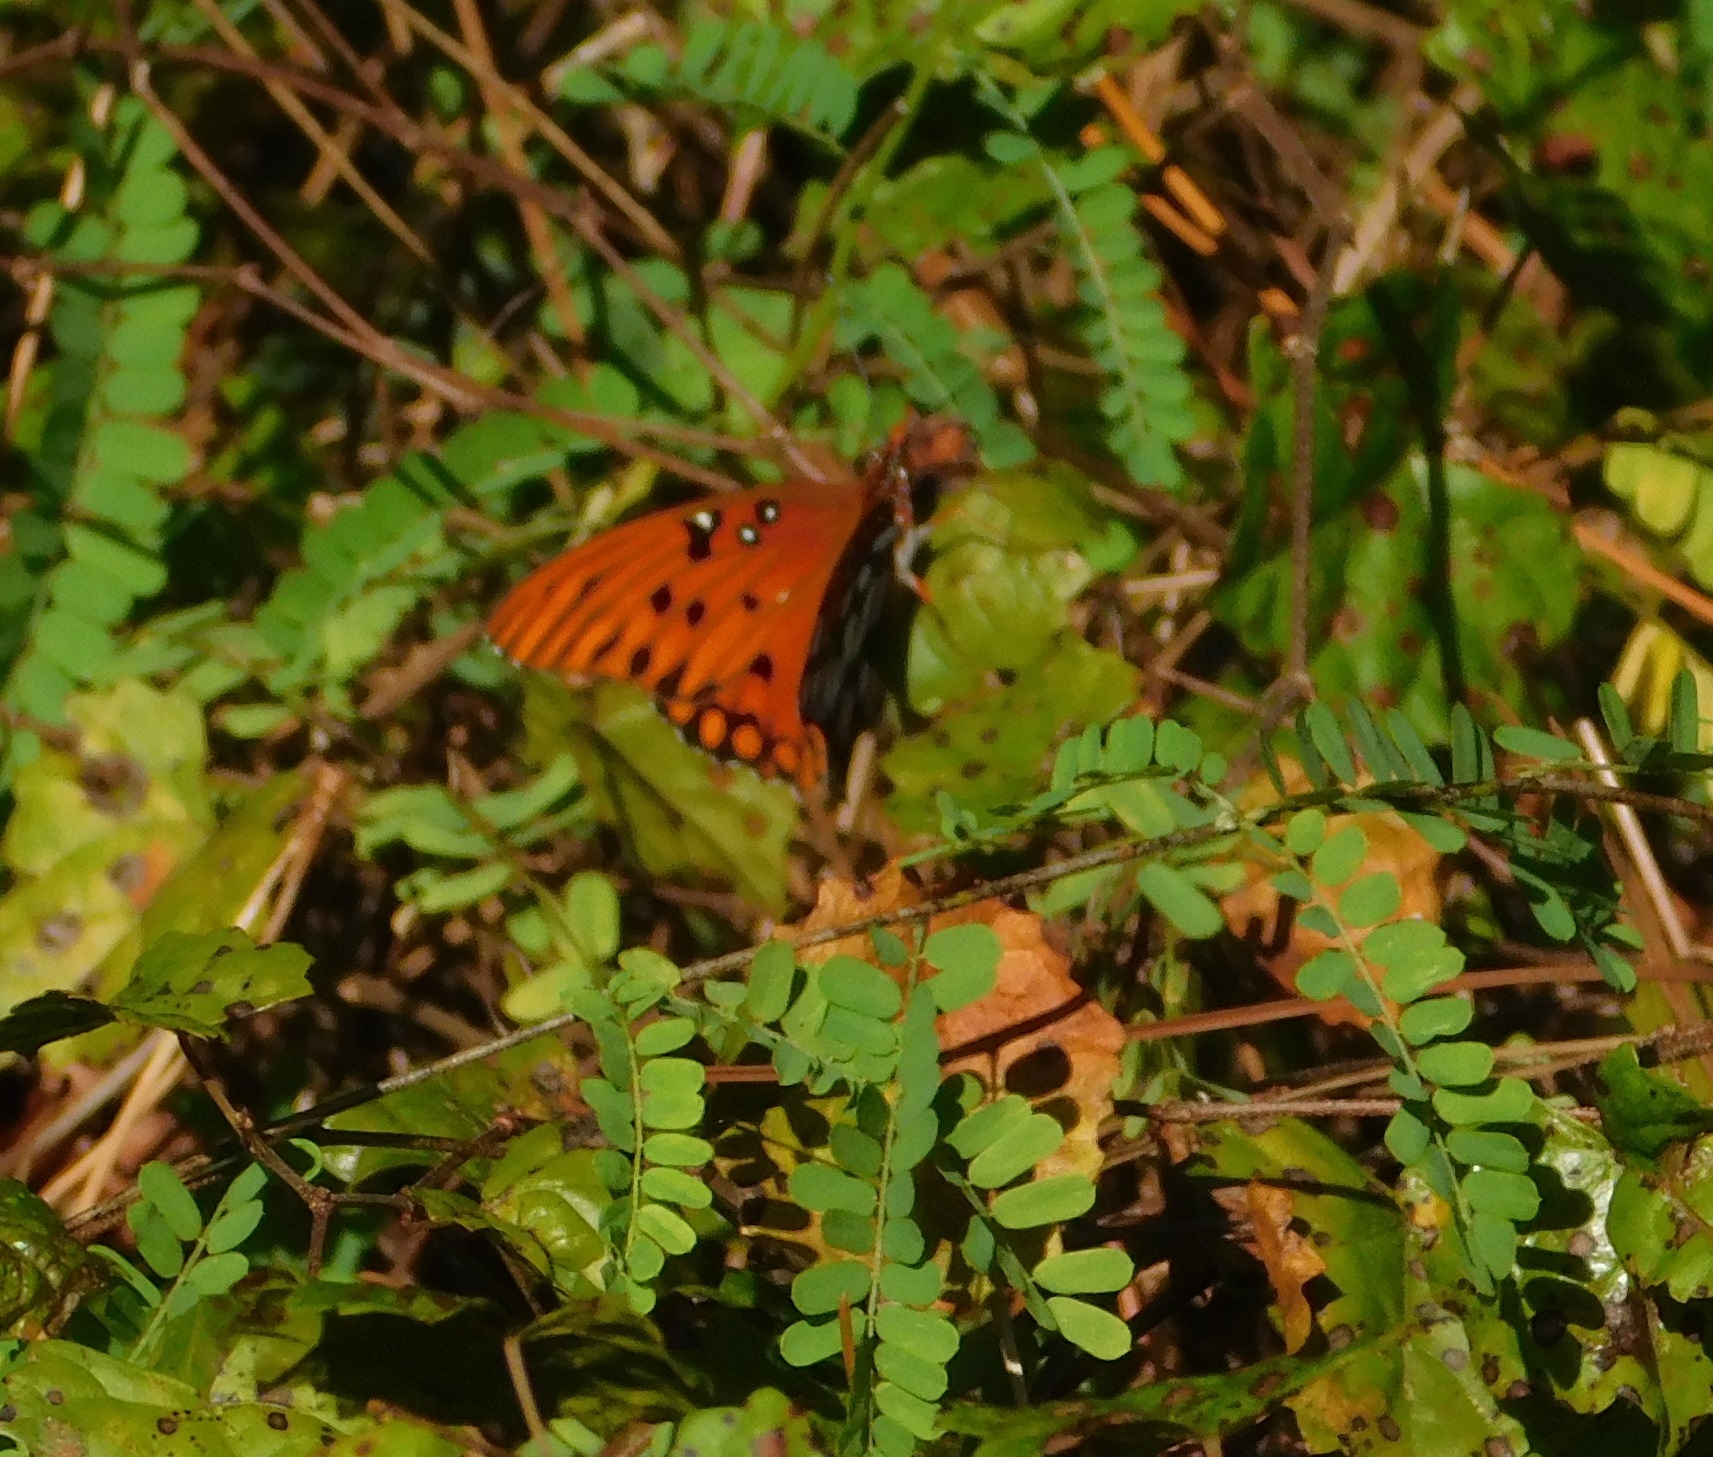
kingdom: Animalia
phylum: Arthropoda
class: Insecta
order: Lepidoptera
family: Nymphalidae
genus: Dione
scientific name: Dione vanillae
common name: Gulf fritillary
